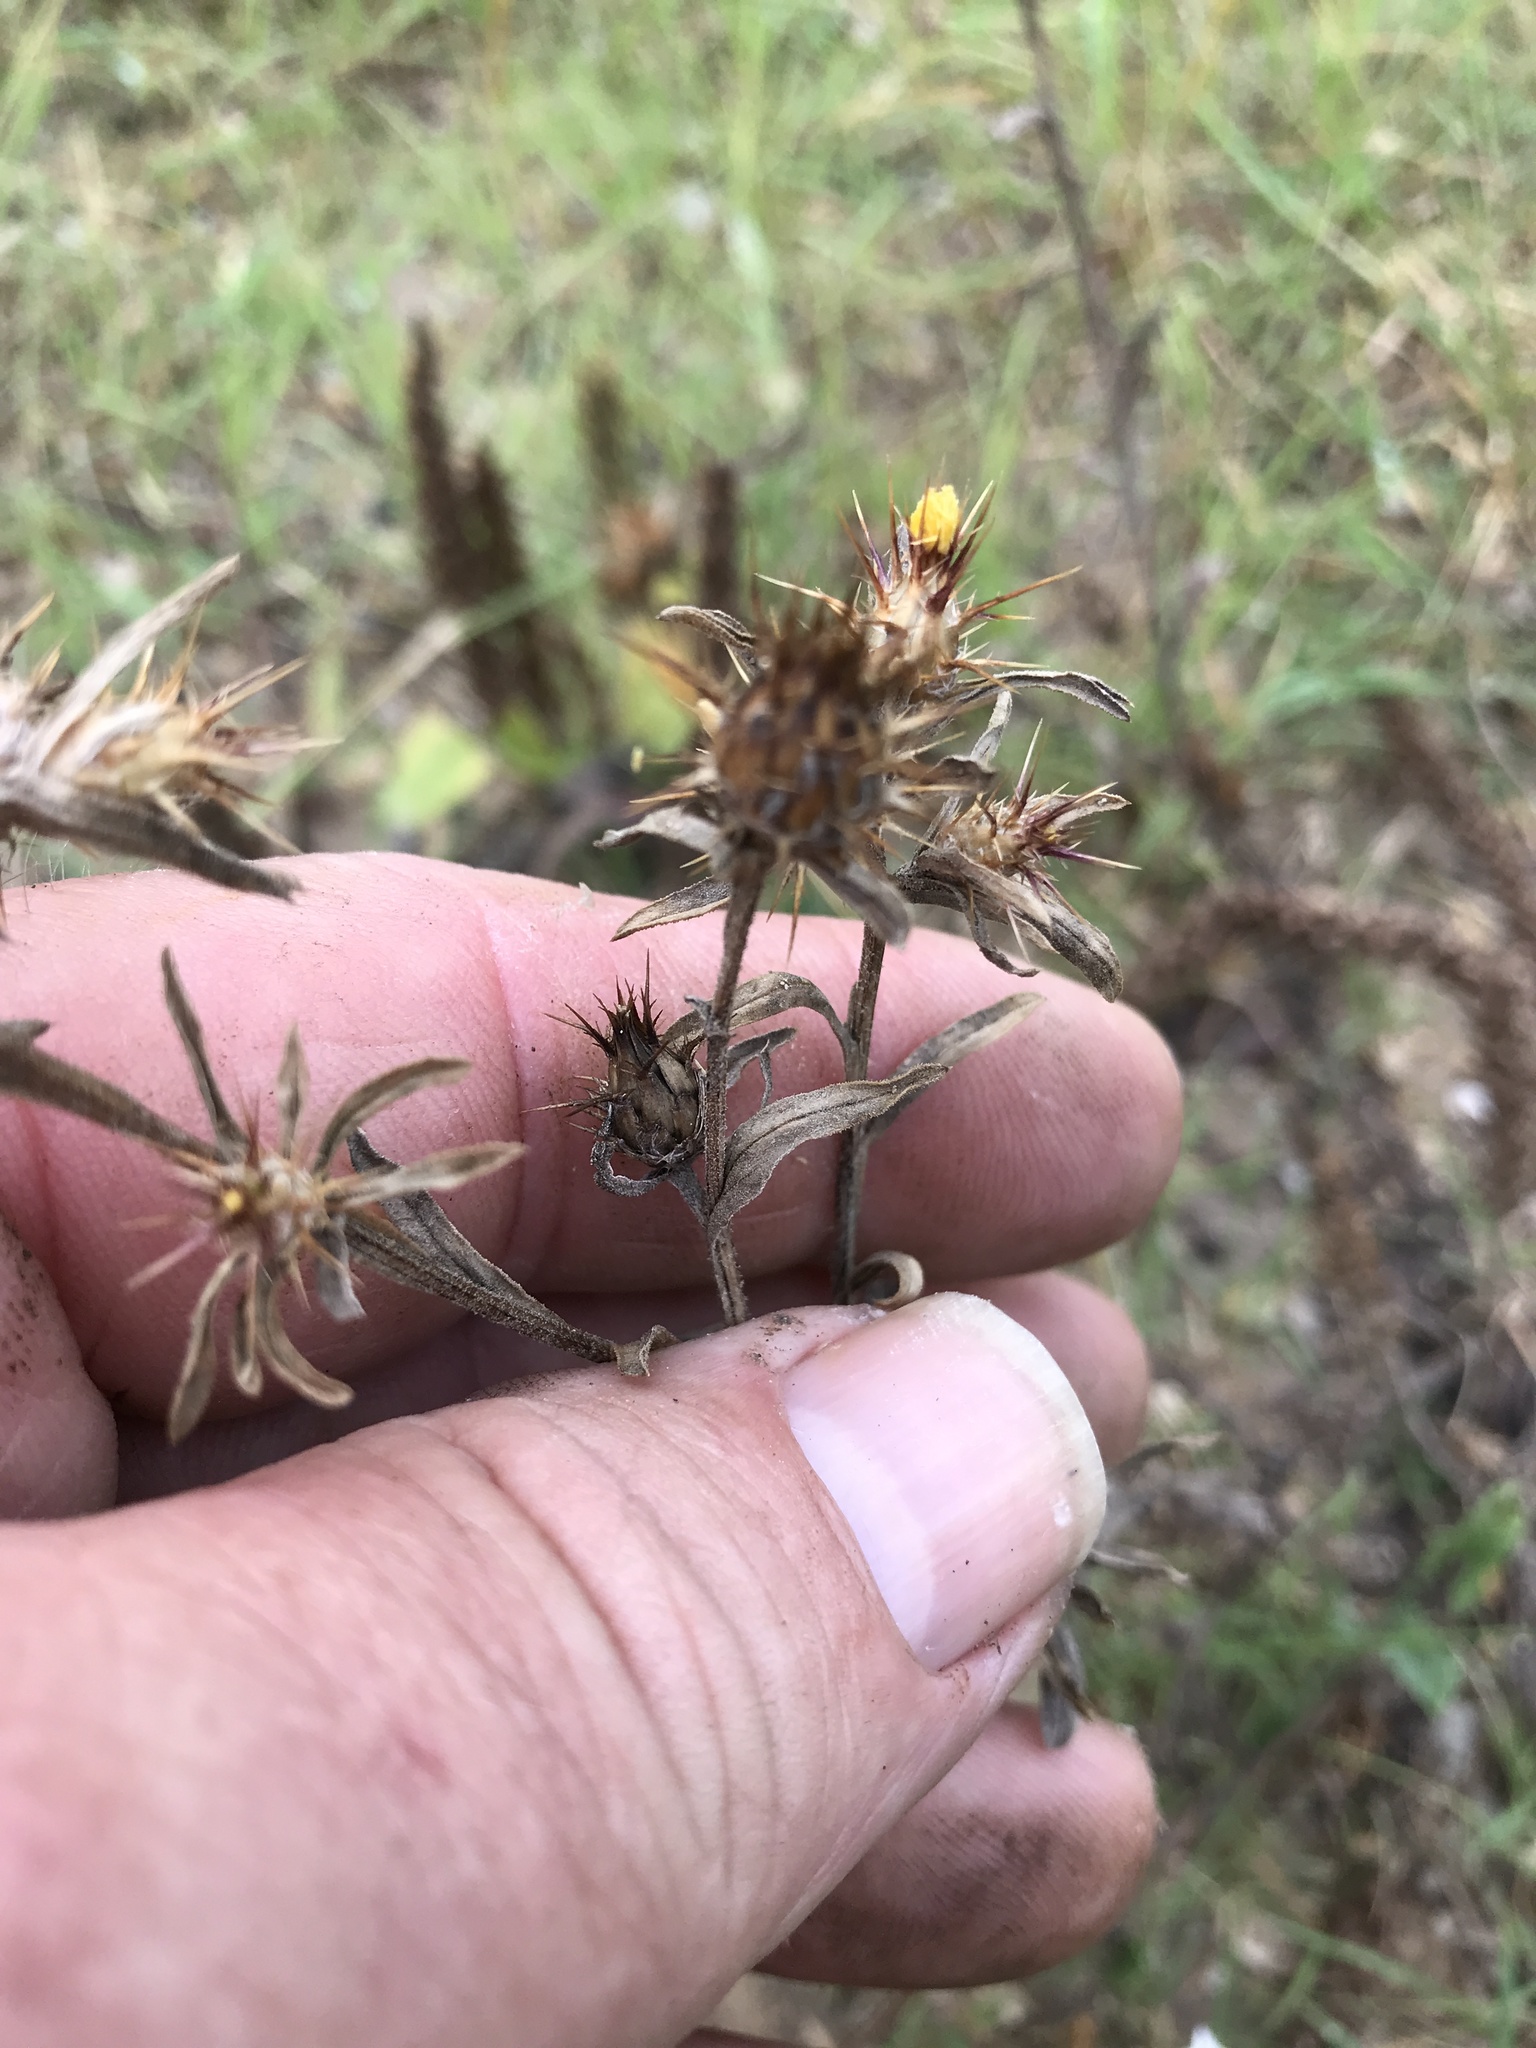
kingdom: Plantae
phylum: Tracheophyta
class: Magnoliopsida
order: Asterales
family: Asteraceae
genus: Centaurea
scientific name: Centaurea melitensis
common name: Maltese star-thistle
